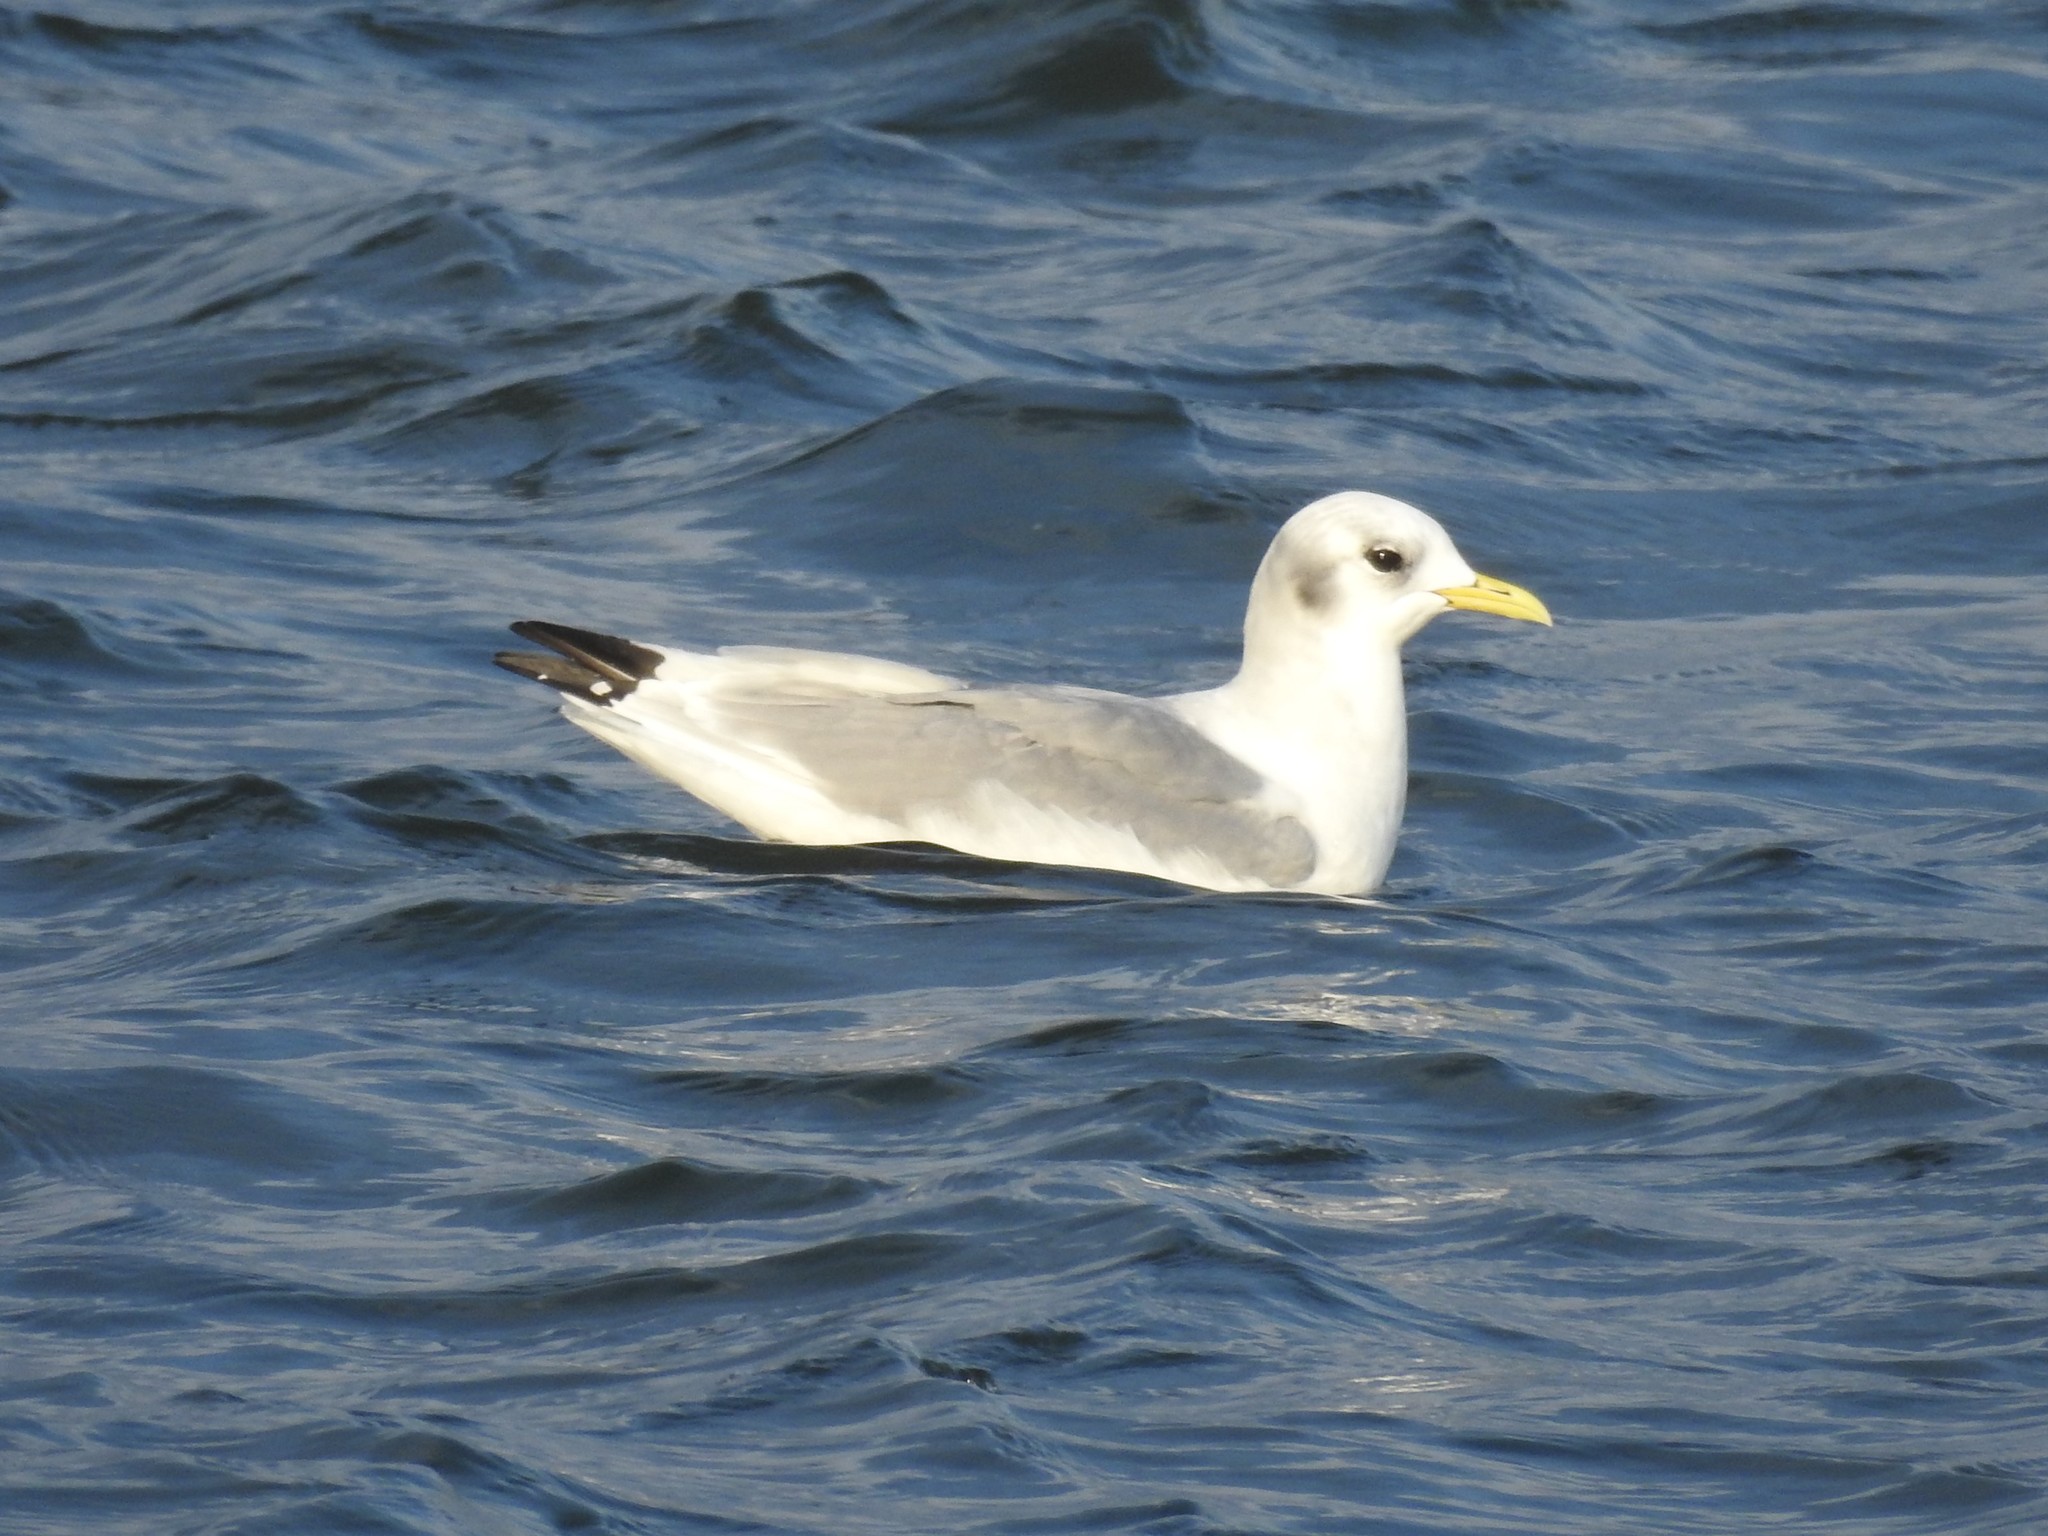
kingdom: Animalia
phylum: Chordata
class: Aves
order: Charadriiformes
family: Laridae
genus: Rissa
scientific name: Rissa tridactyla
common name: Black-legged kittiwake
